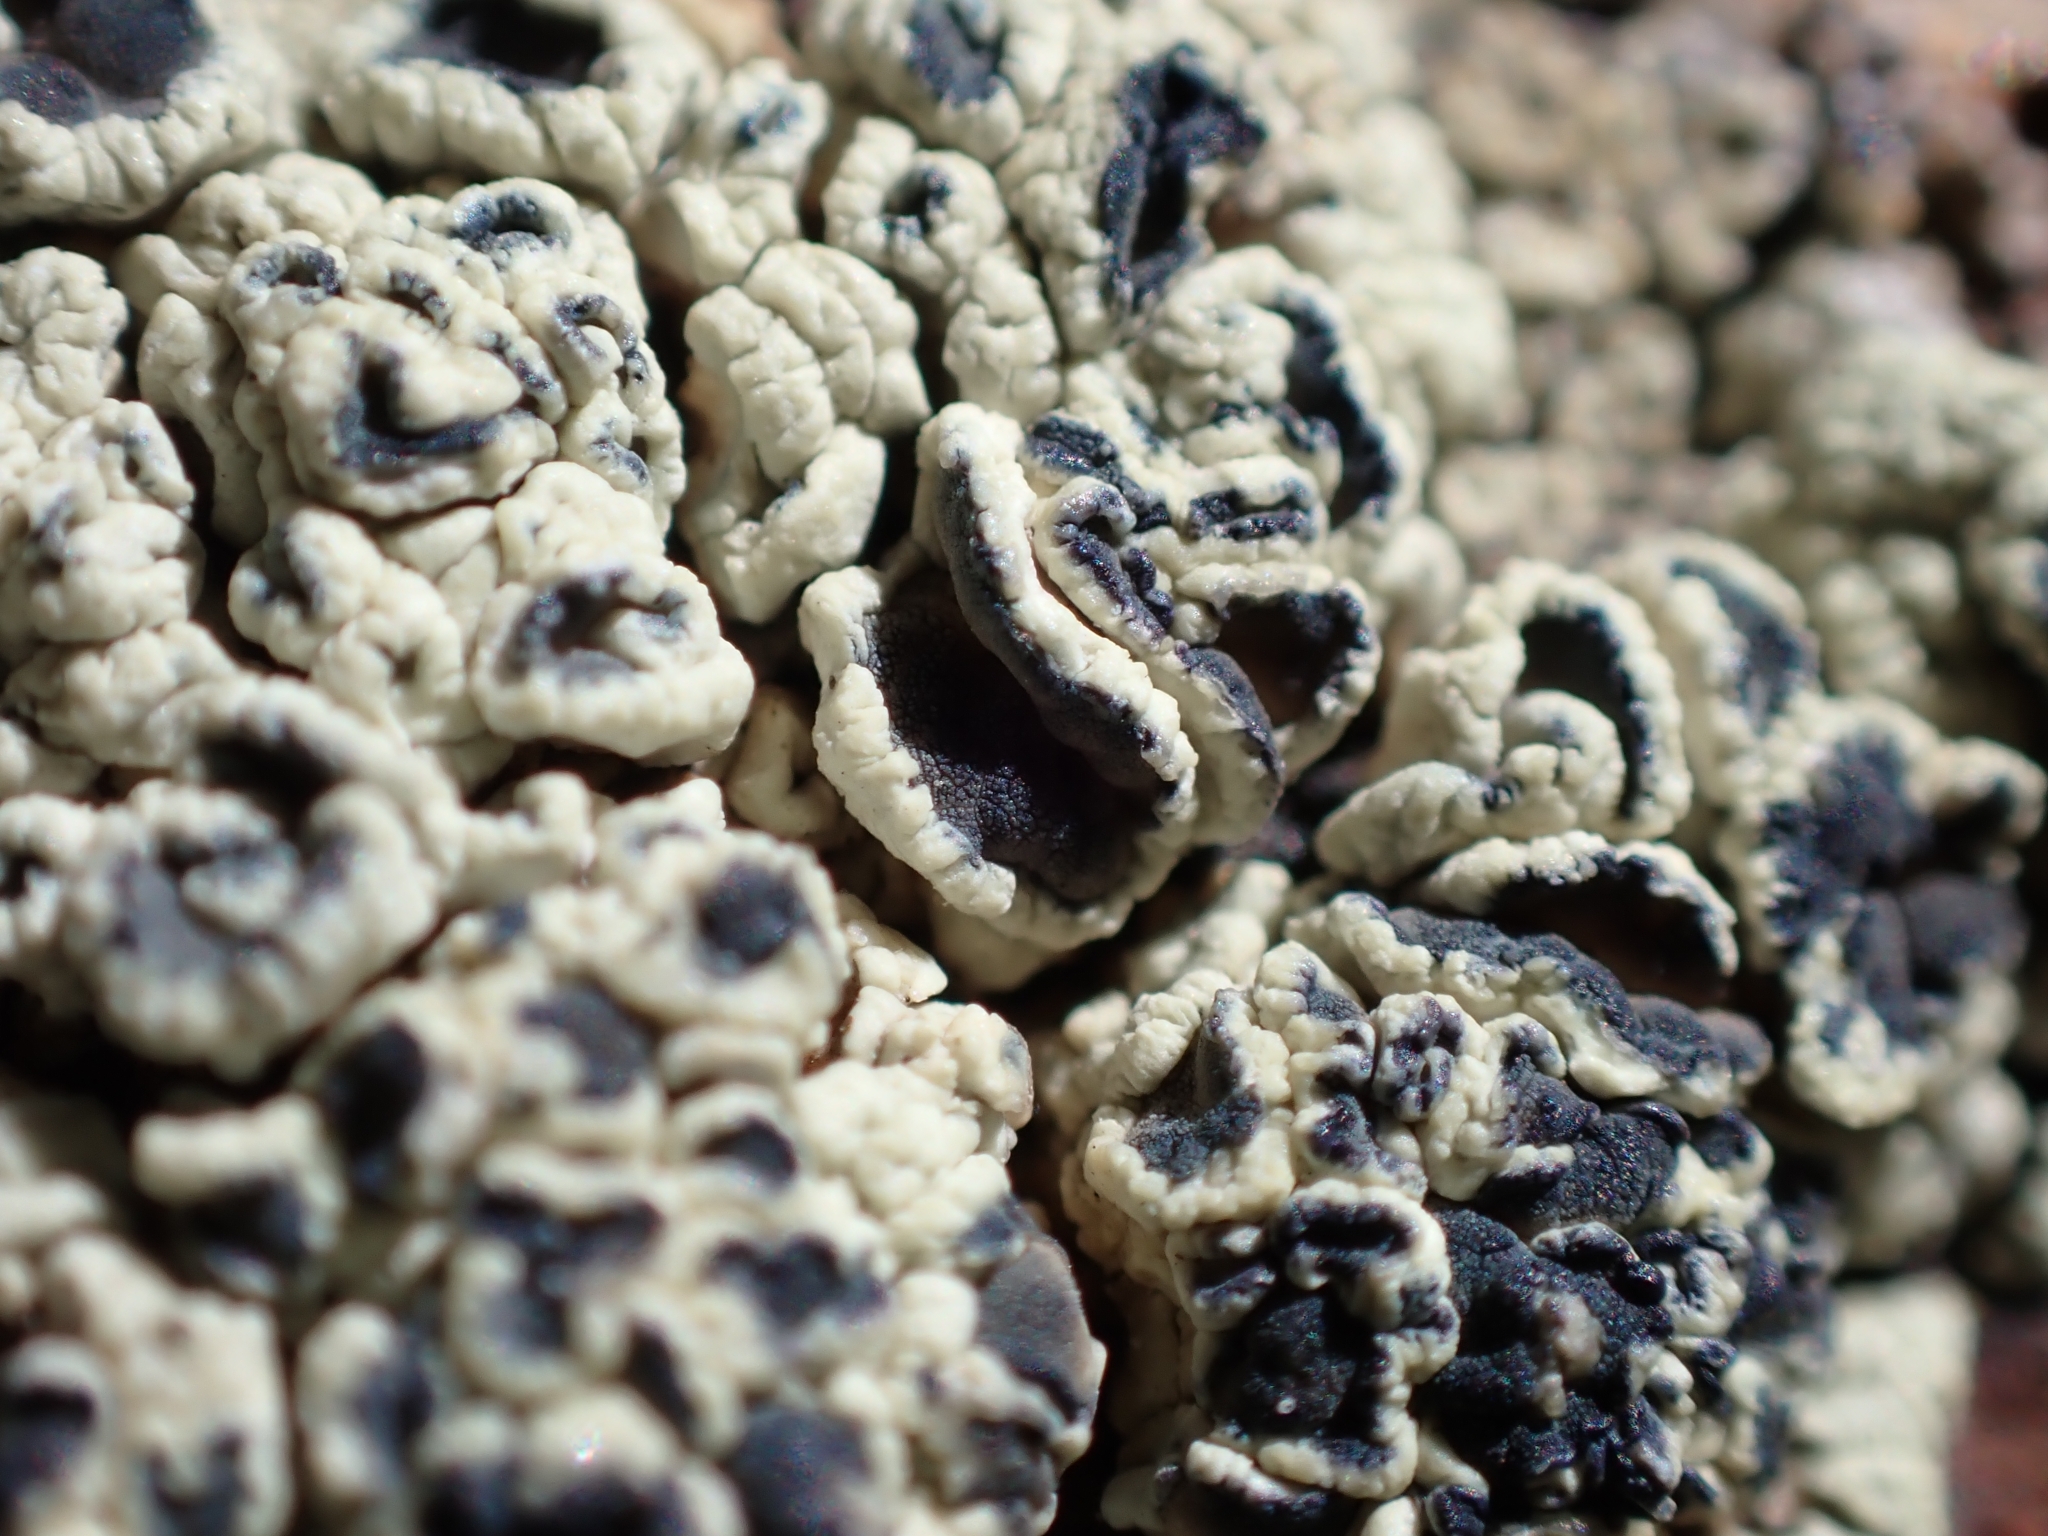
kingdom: Fungi
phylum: Ascomycota
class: Lecanoromycetes
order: Lecanorales
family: Lecanoraceae
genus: Rhizoplaca
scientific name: Rhizoplaca melanophthalma
